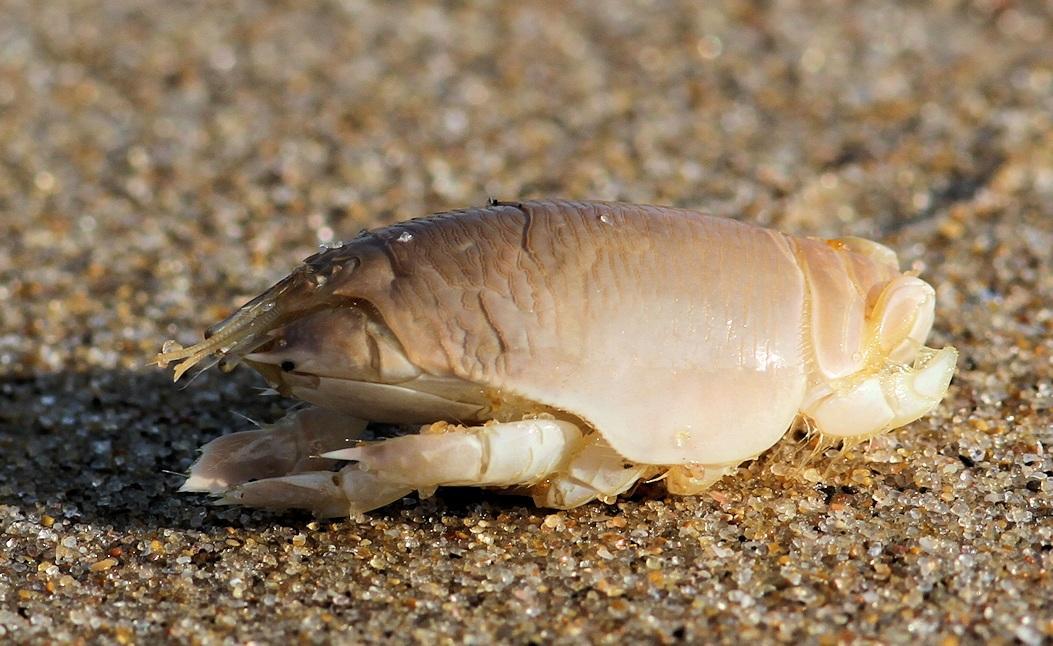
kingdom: Animalia
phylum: Arthropoda
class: Malacostraca
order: Decapoda
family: Hippidae
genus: Emerita
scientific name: Emerita austroafricana
